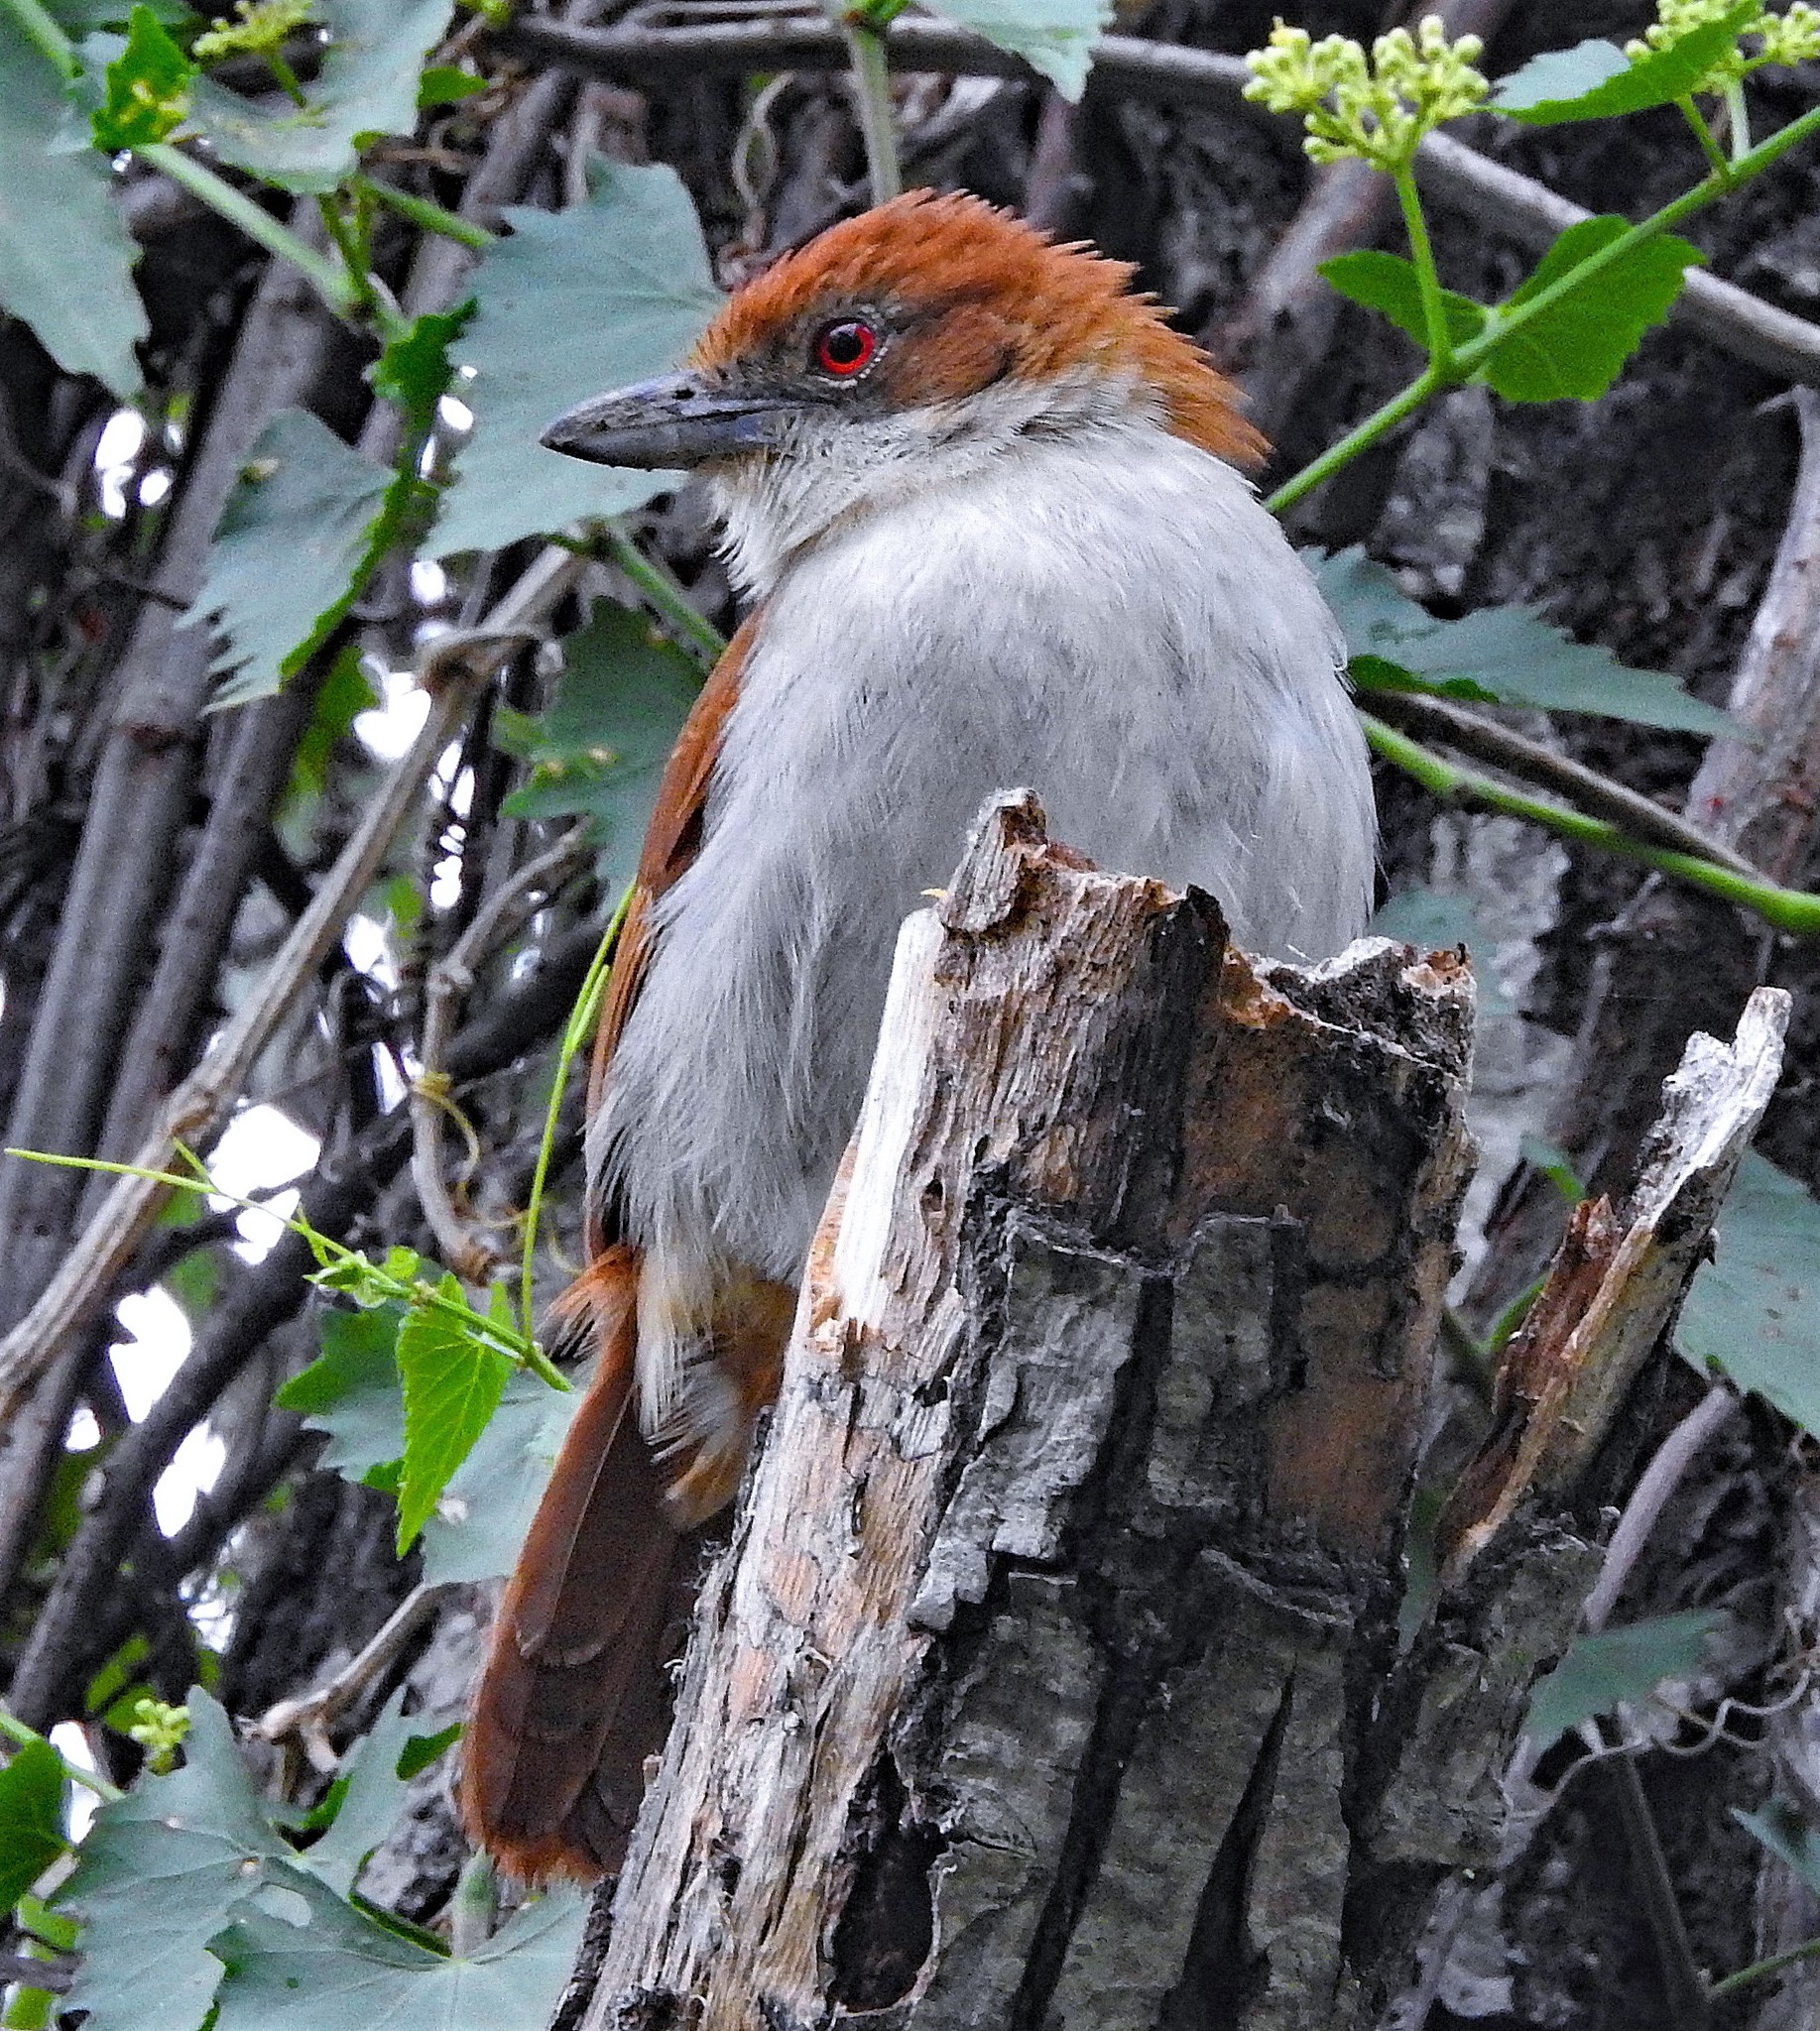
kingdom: Animalia
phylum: Chordata
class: Aves
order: Passeriformes
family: Thamnophilidae
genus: Taraba
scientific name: Taraba major
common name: Great antshrike
